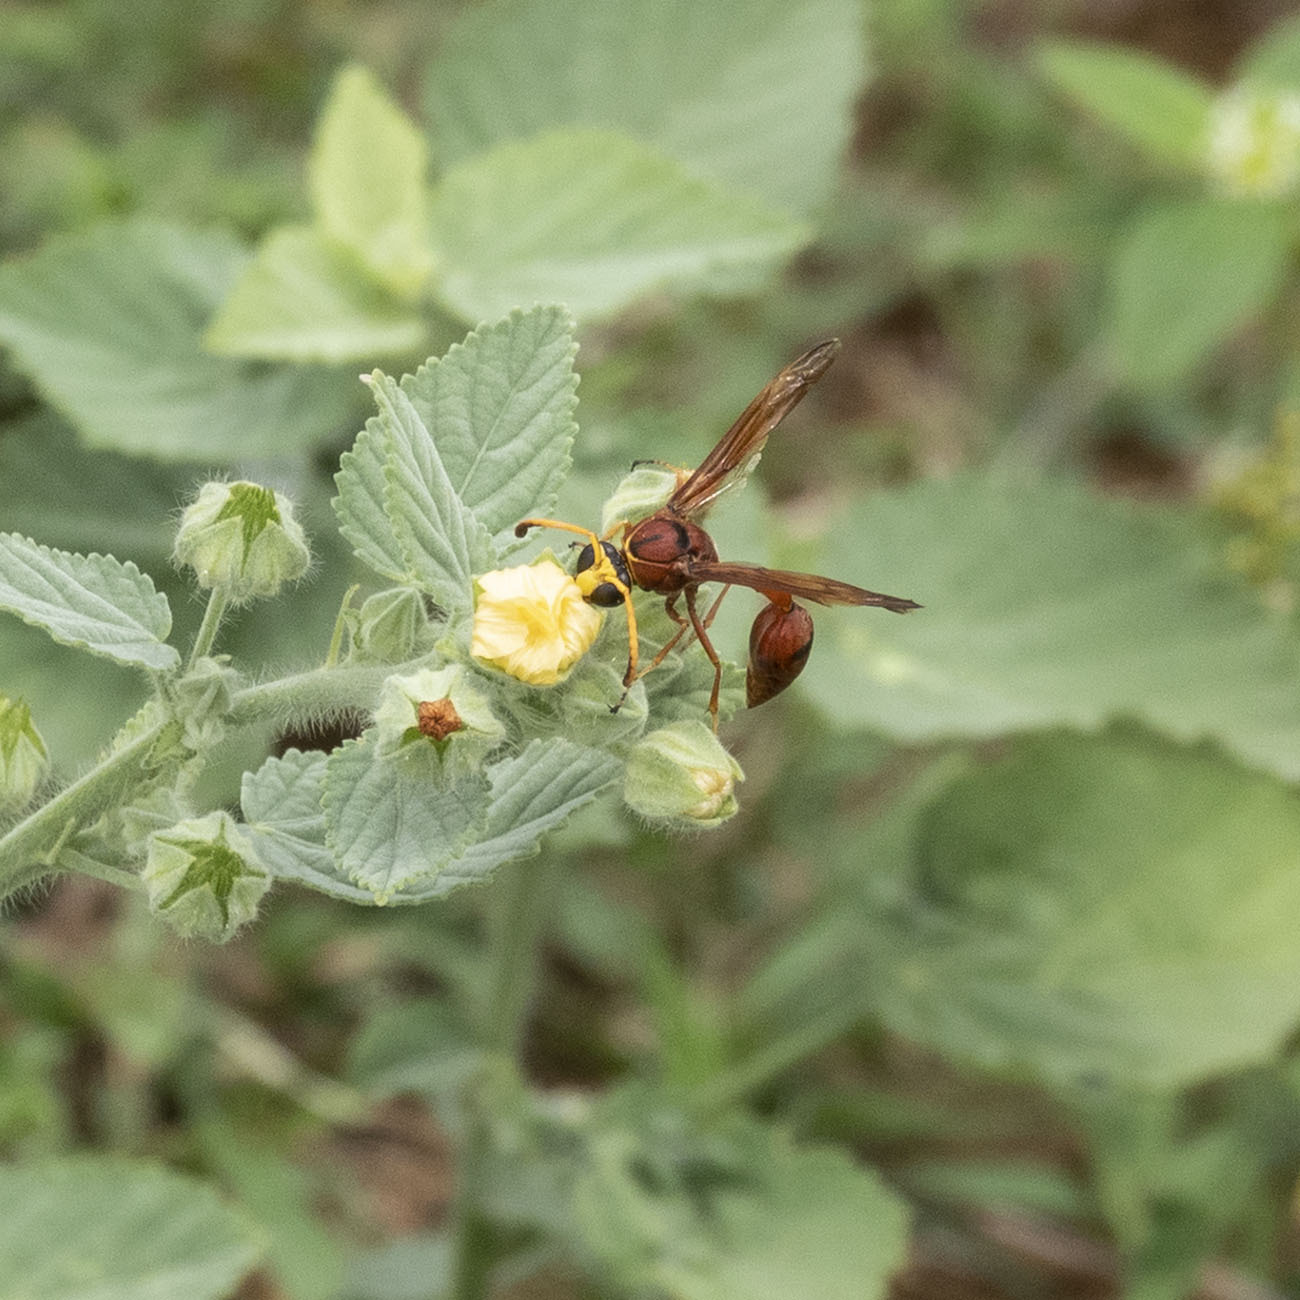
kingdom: Animalia
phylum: Arthropoda
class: Insecta
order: Hymenoptera
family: Eumenidae
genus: Delta
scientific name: Delta conoideum
